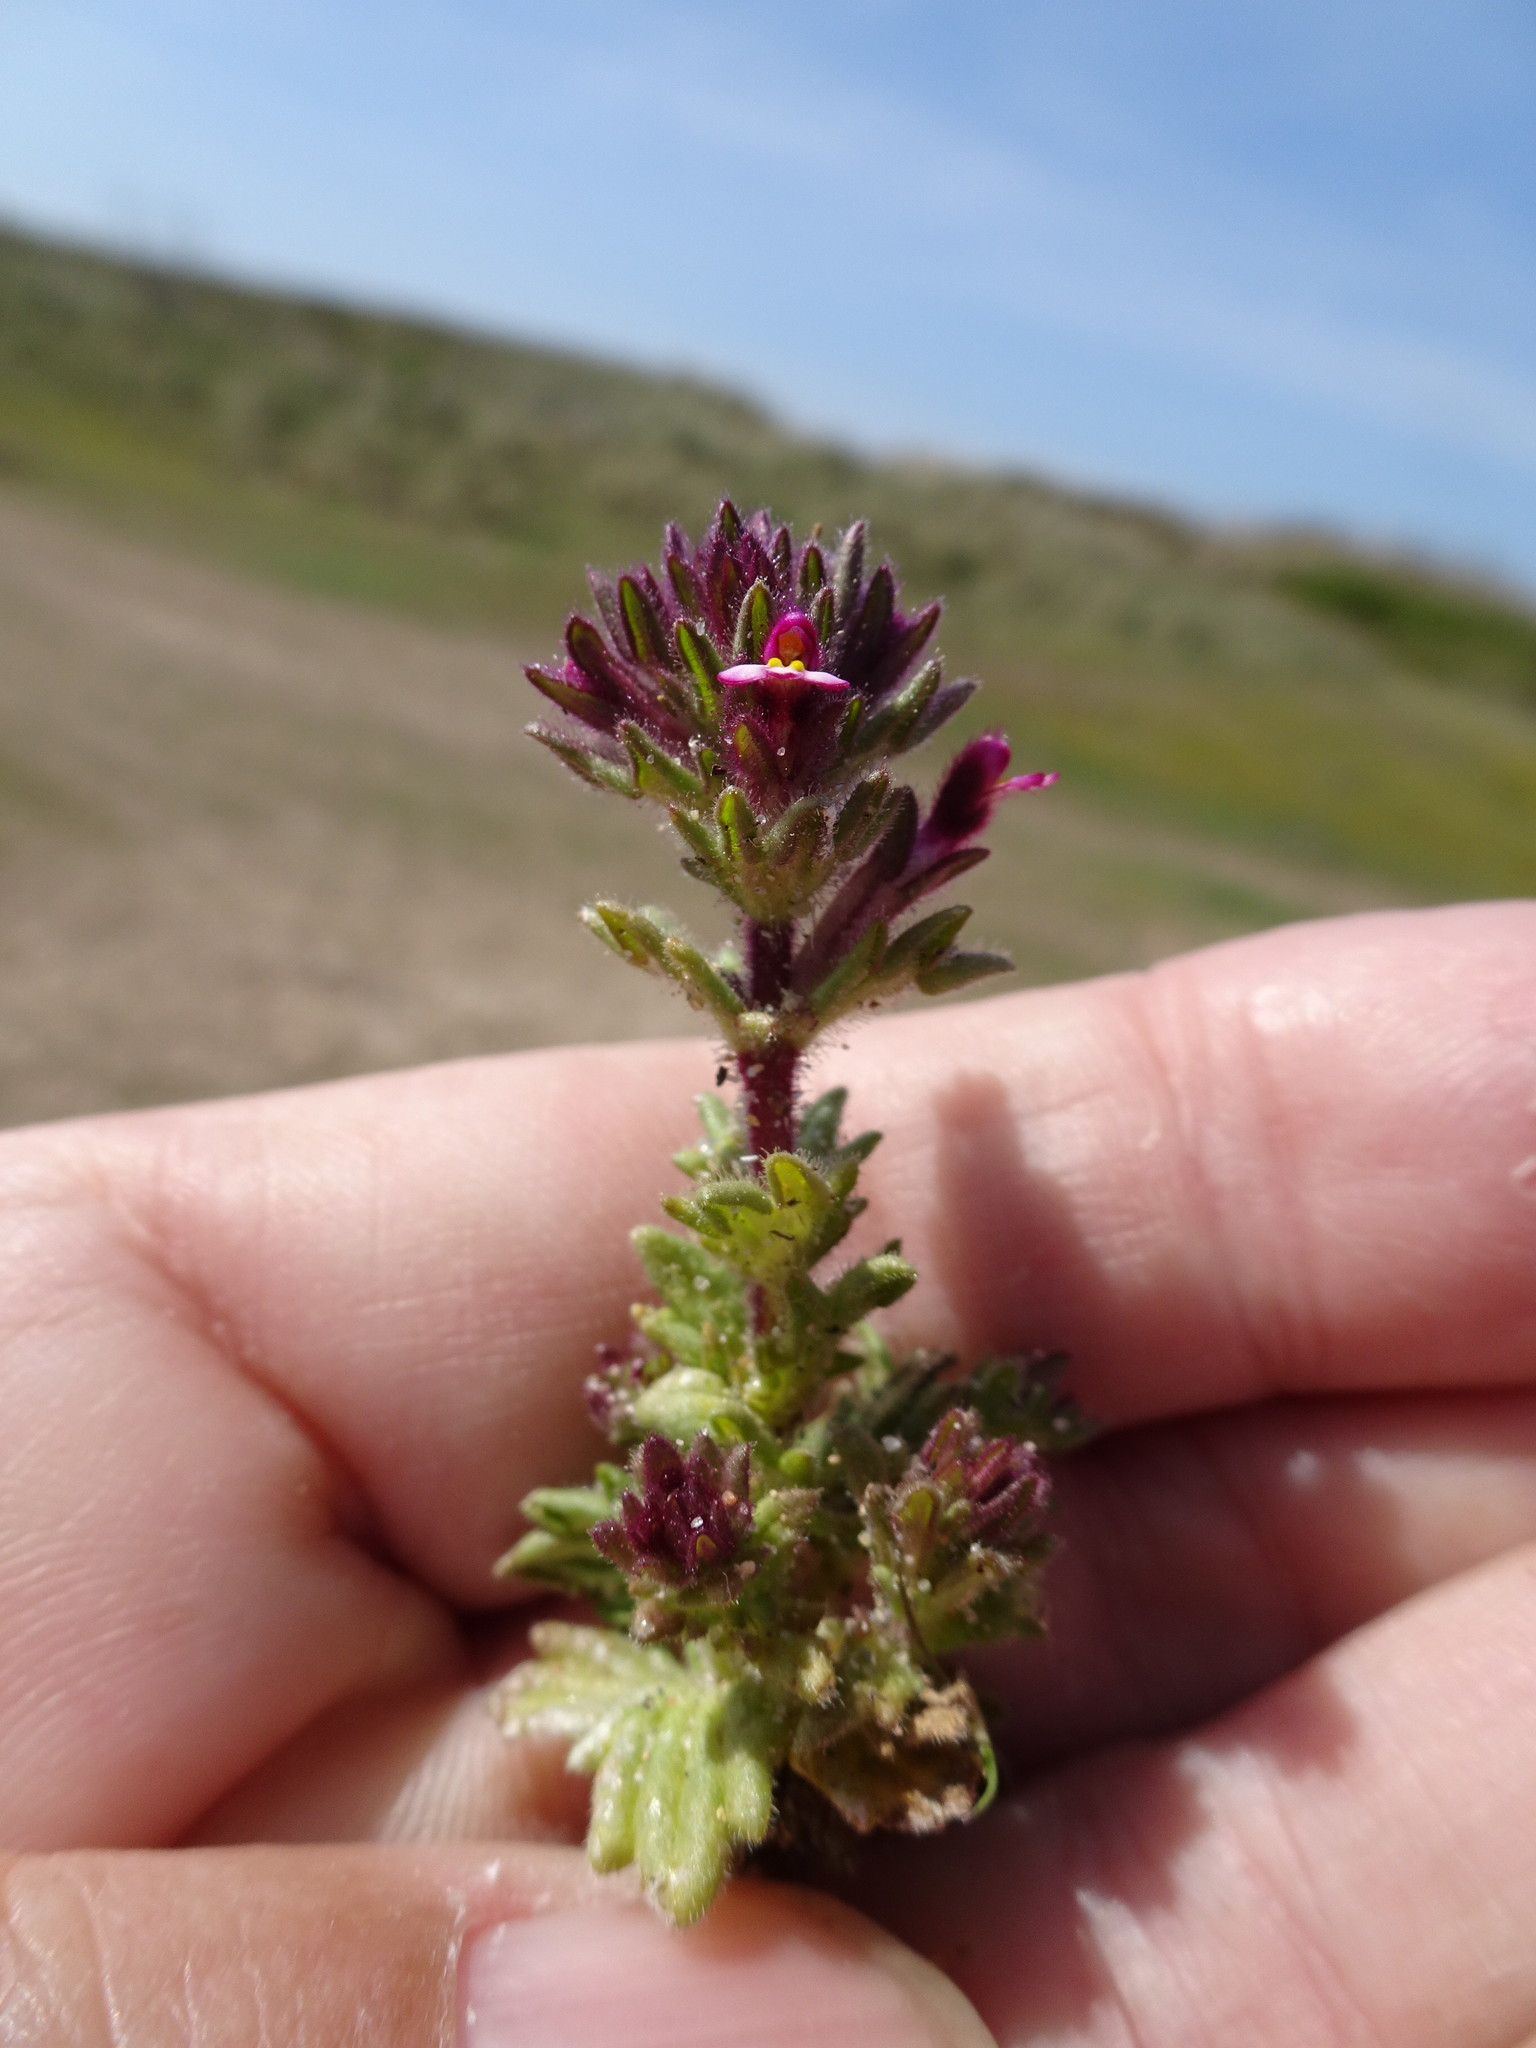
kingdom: Plantae
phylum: Tracheophyta
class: Magnoliopsida
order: Lamiales
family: Orobanchaceae
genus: Parentucellia
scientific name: Parentucellia latifolia
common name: Broadleaf glandweed
